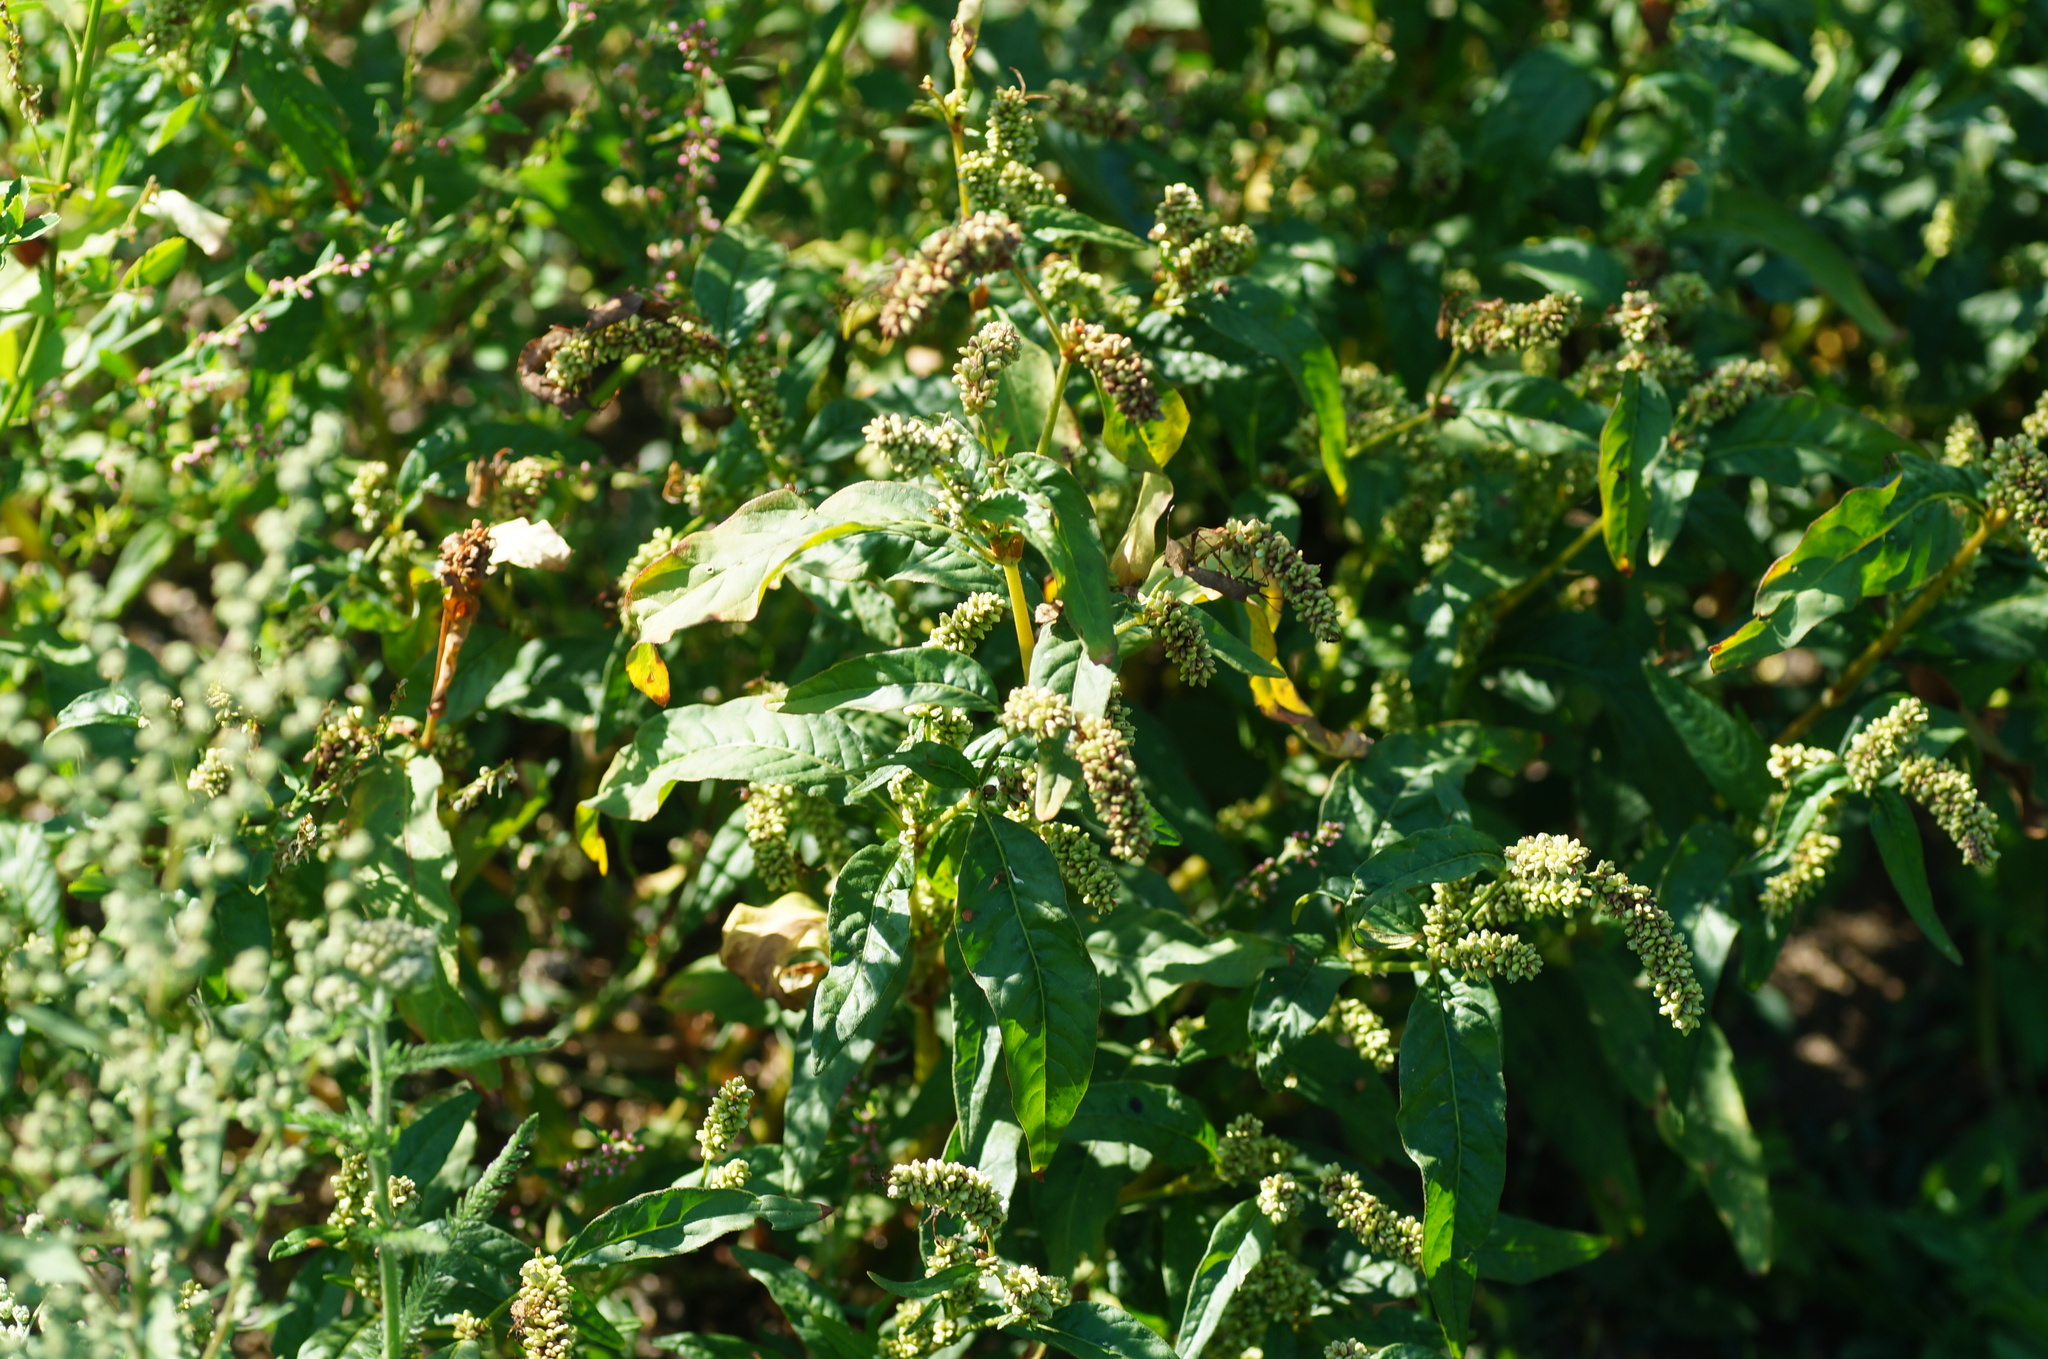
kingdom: Plantae
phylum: Tracheophyta
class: Magnoliopsida
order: Caryophyllales
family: Polygonaceae
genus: Persicaria
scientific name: Persicaria lapathifolia
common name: Curlytop knotweed
